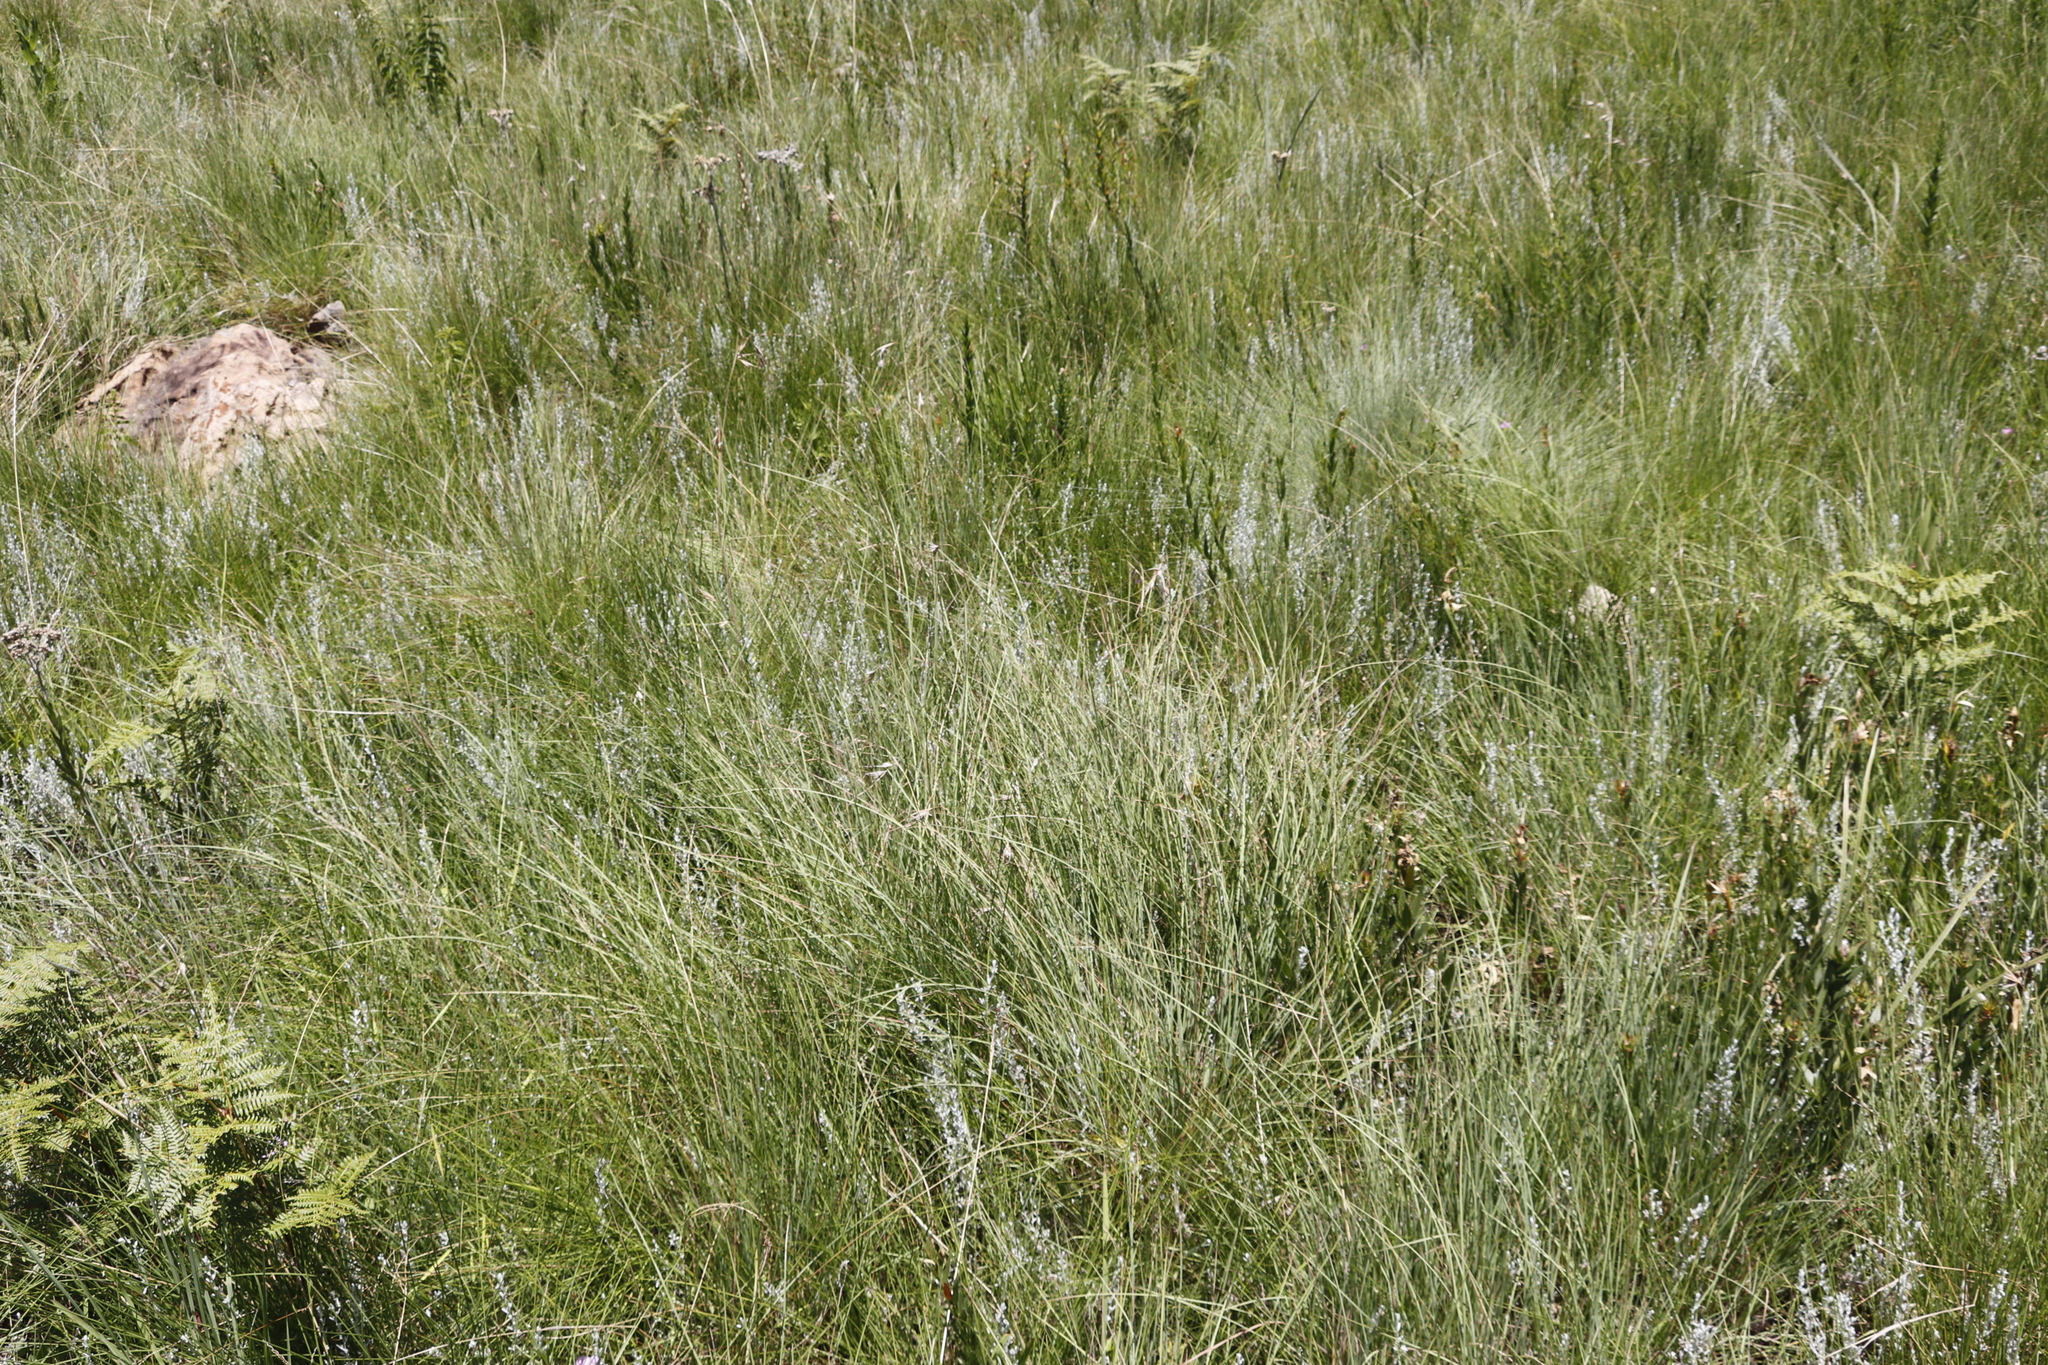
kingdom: Plantae
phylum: Tracheophyta
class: Liliopsida
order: Poales
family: Poaceae
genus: Themeda
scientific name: Themeda triandra
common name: Kangaroo grass
